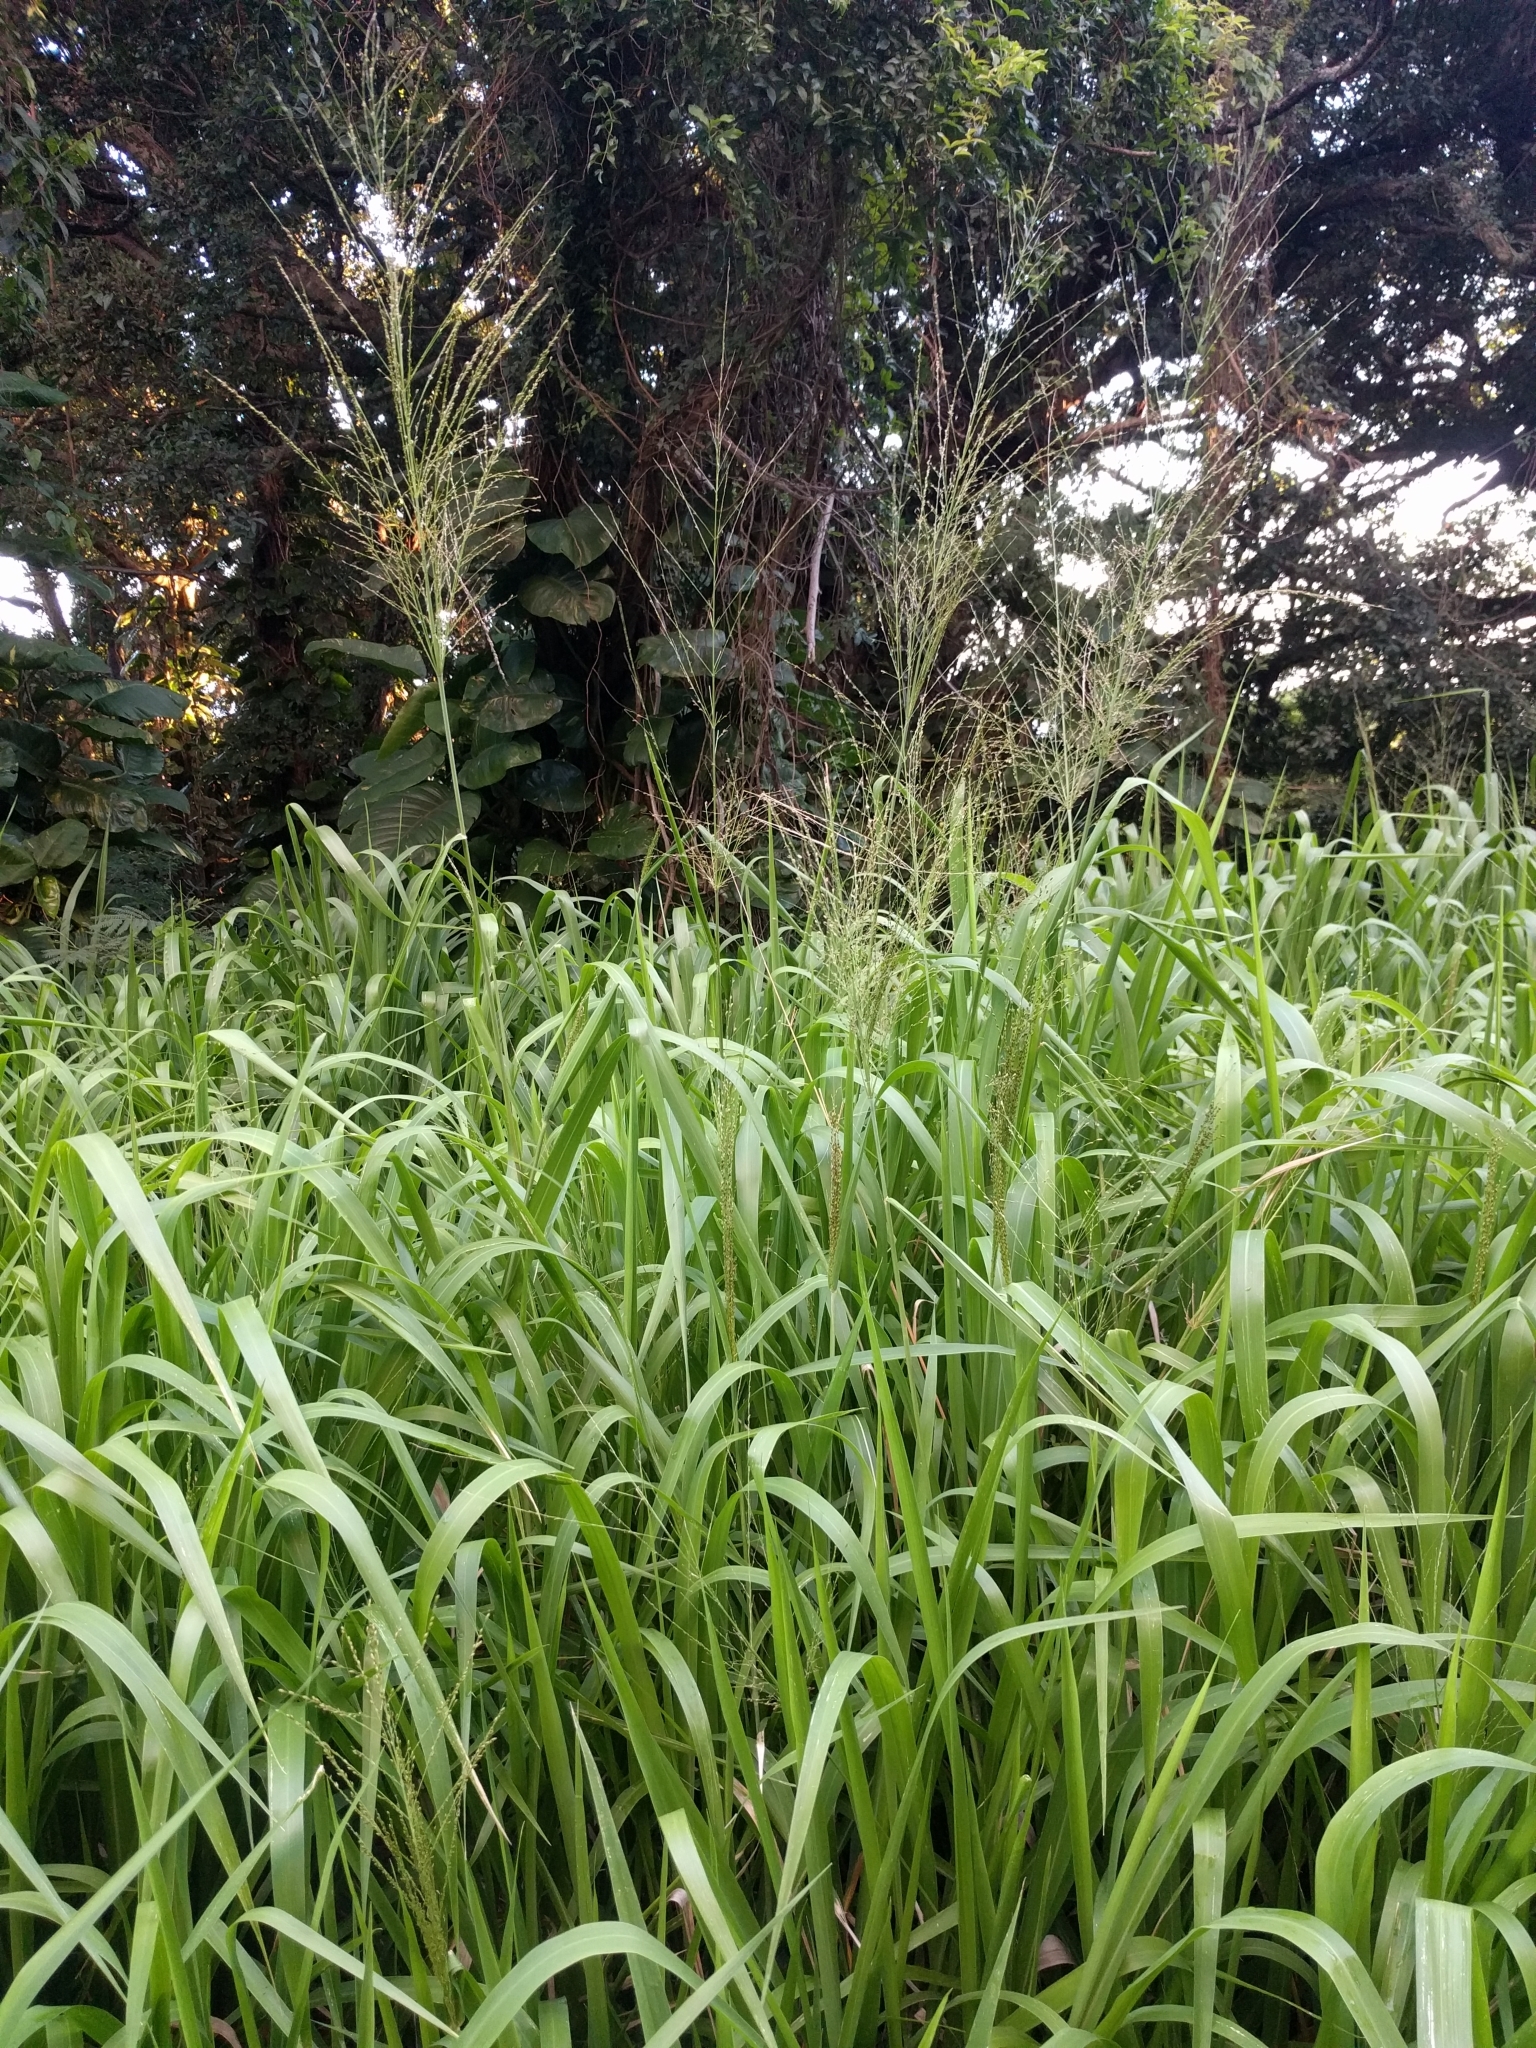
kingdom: Plantae
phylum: Tracheophyta
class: Liliopsida
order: Poales
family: Poaceae
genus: Megathyrsus
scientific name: Megathyrsus maximus
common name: Guineagrass
